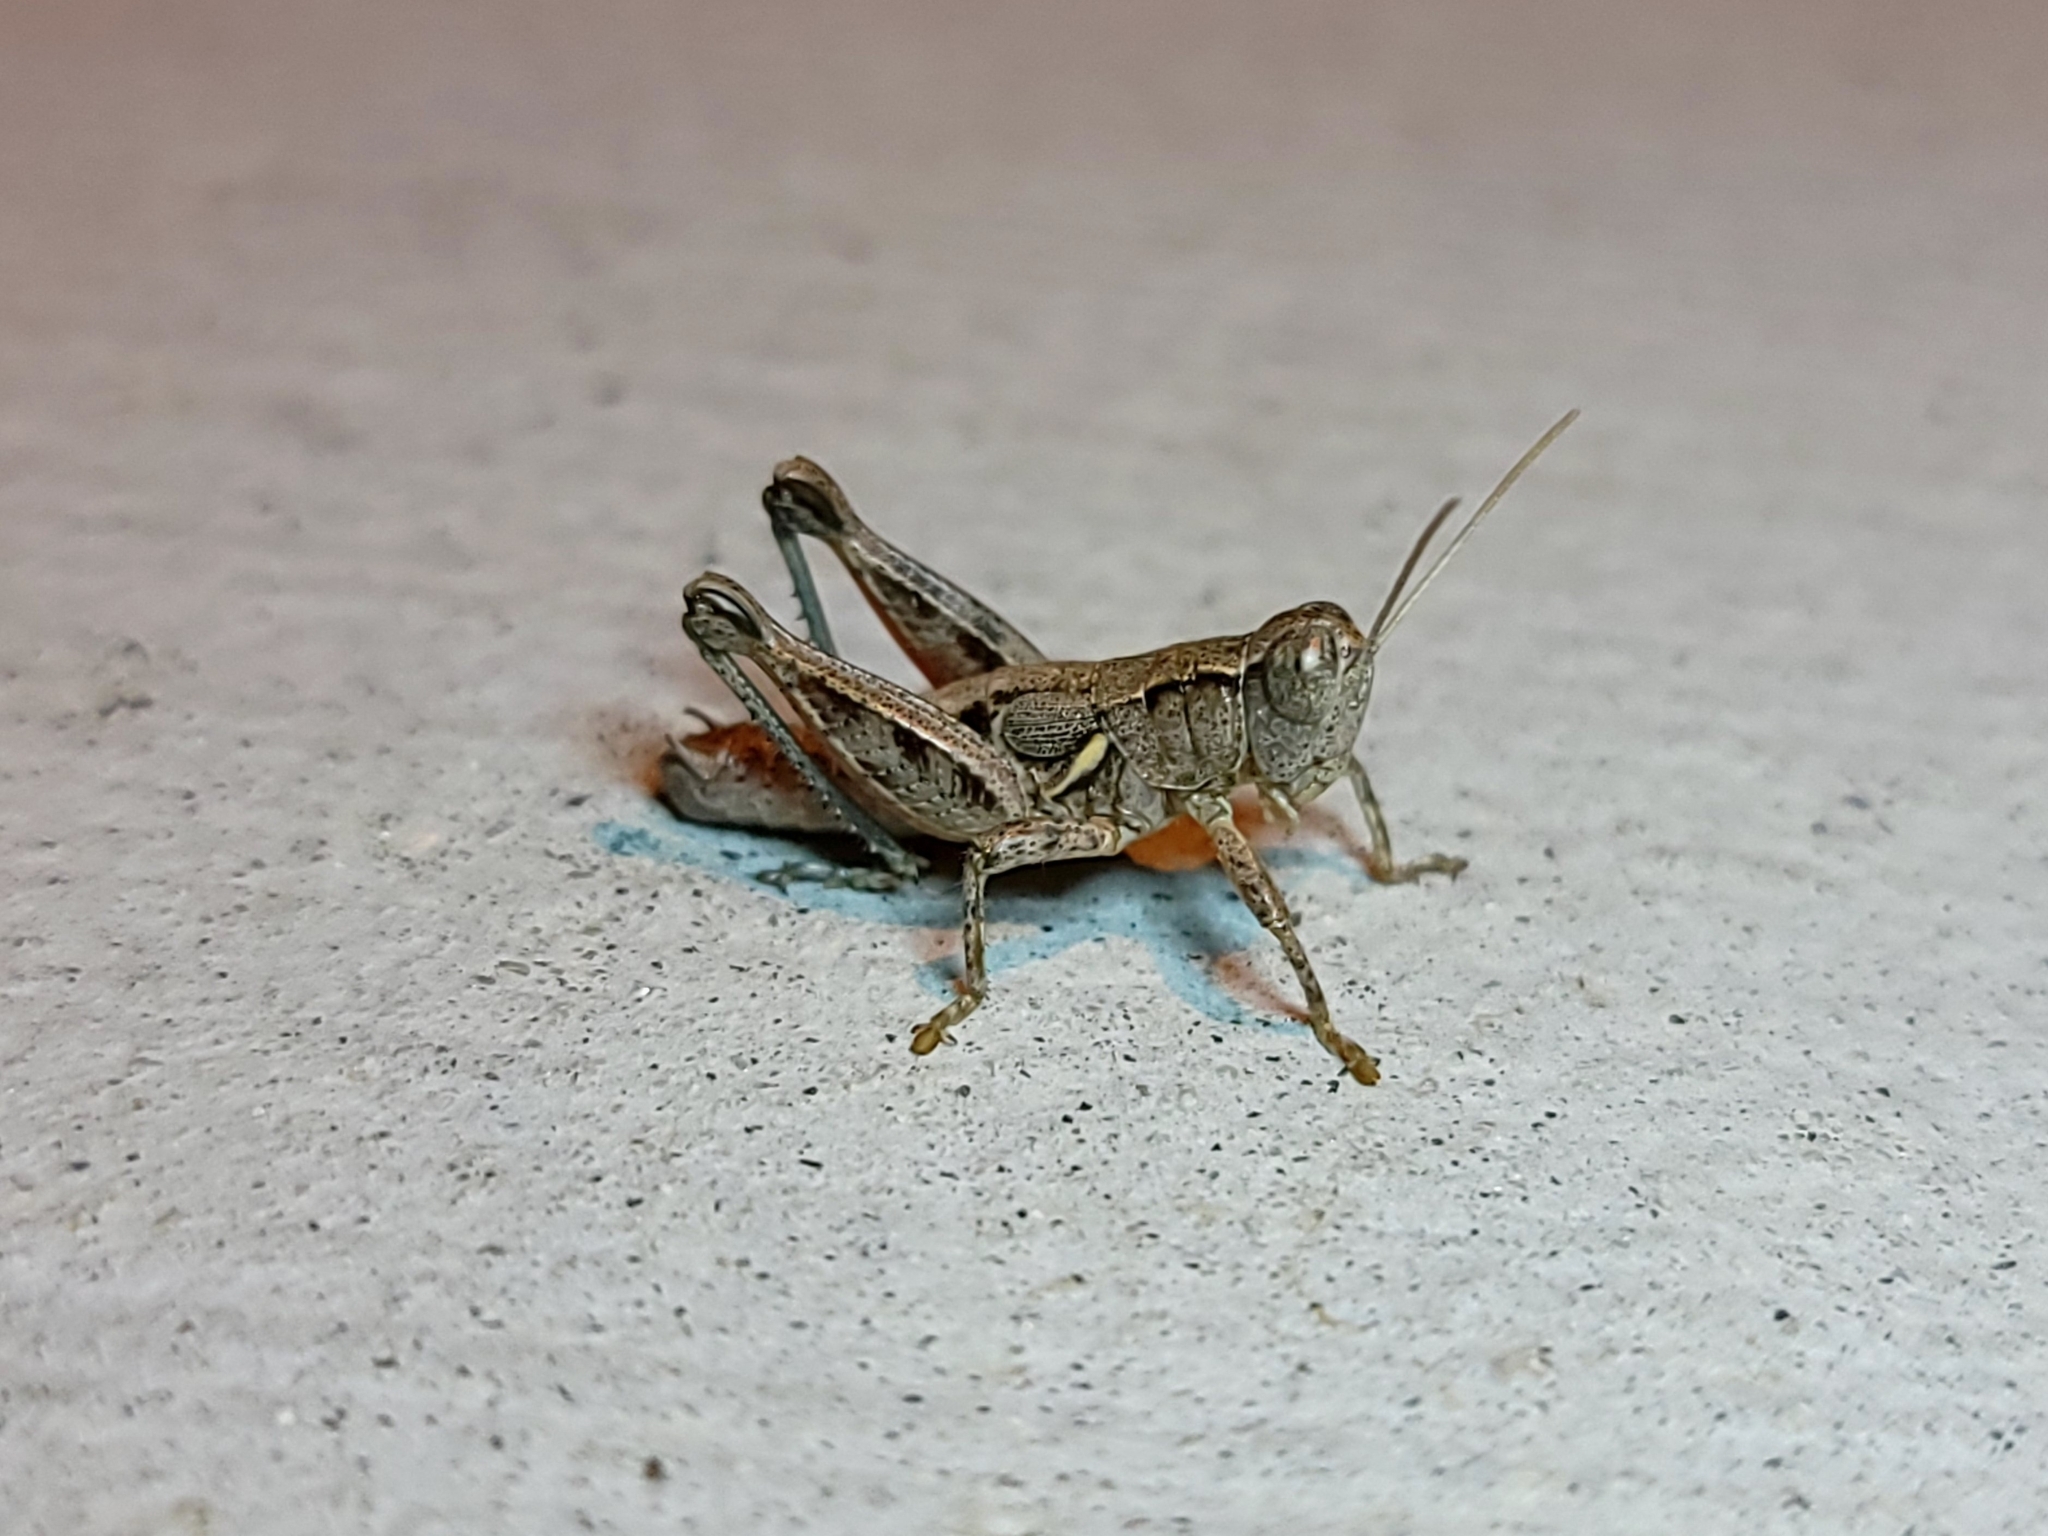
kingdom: Animalia
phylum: Arthropoda
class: Insecta
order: Orthoptera
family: Acrididae
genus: Oedaleonotus
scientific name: Oedaleonotus tenuipennis
